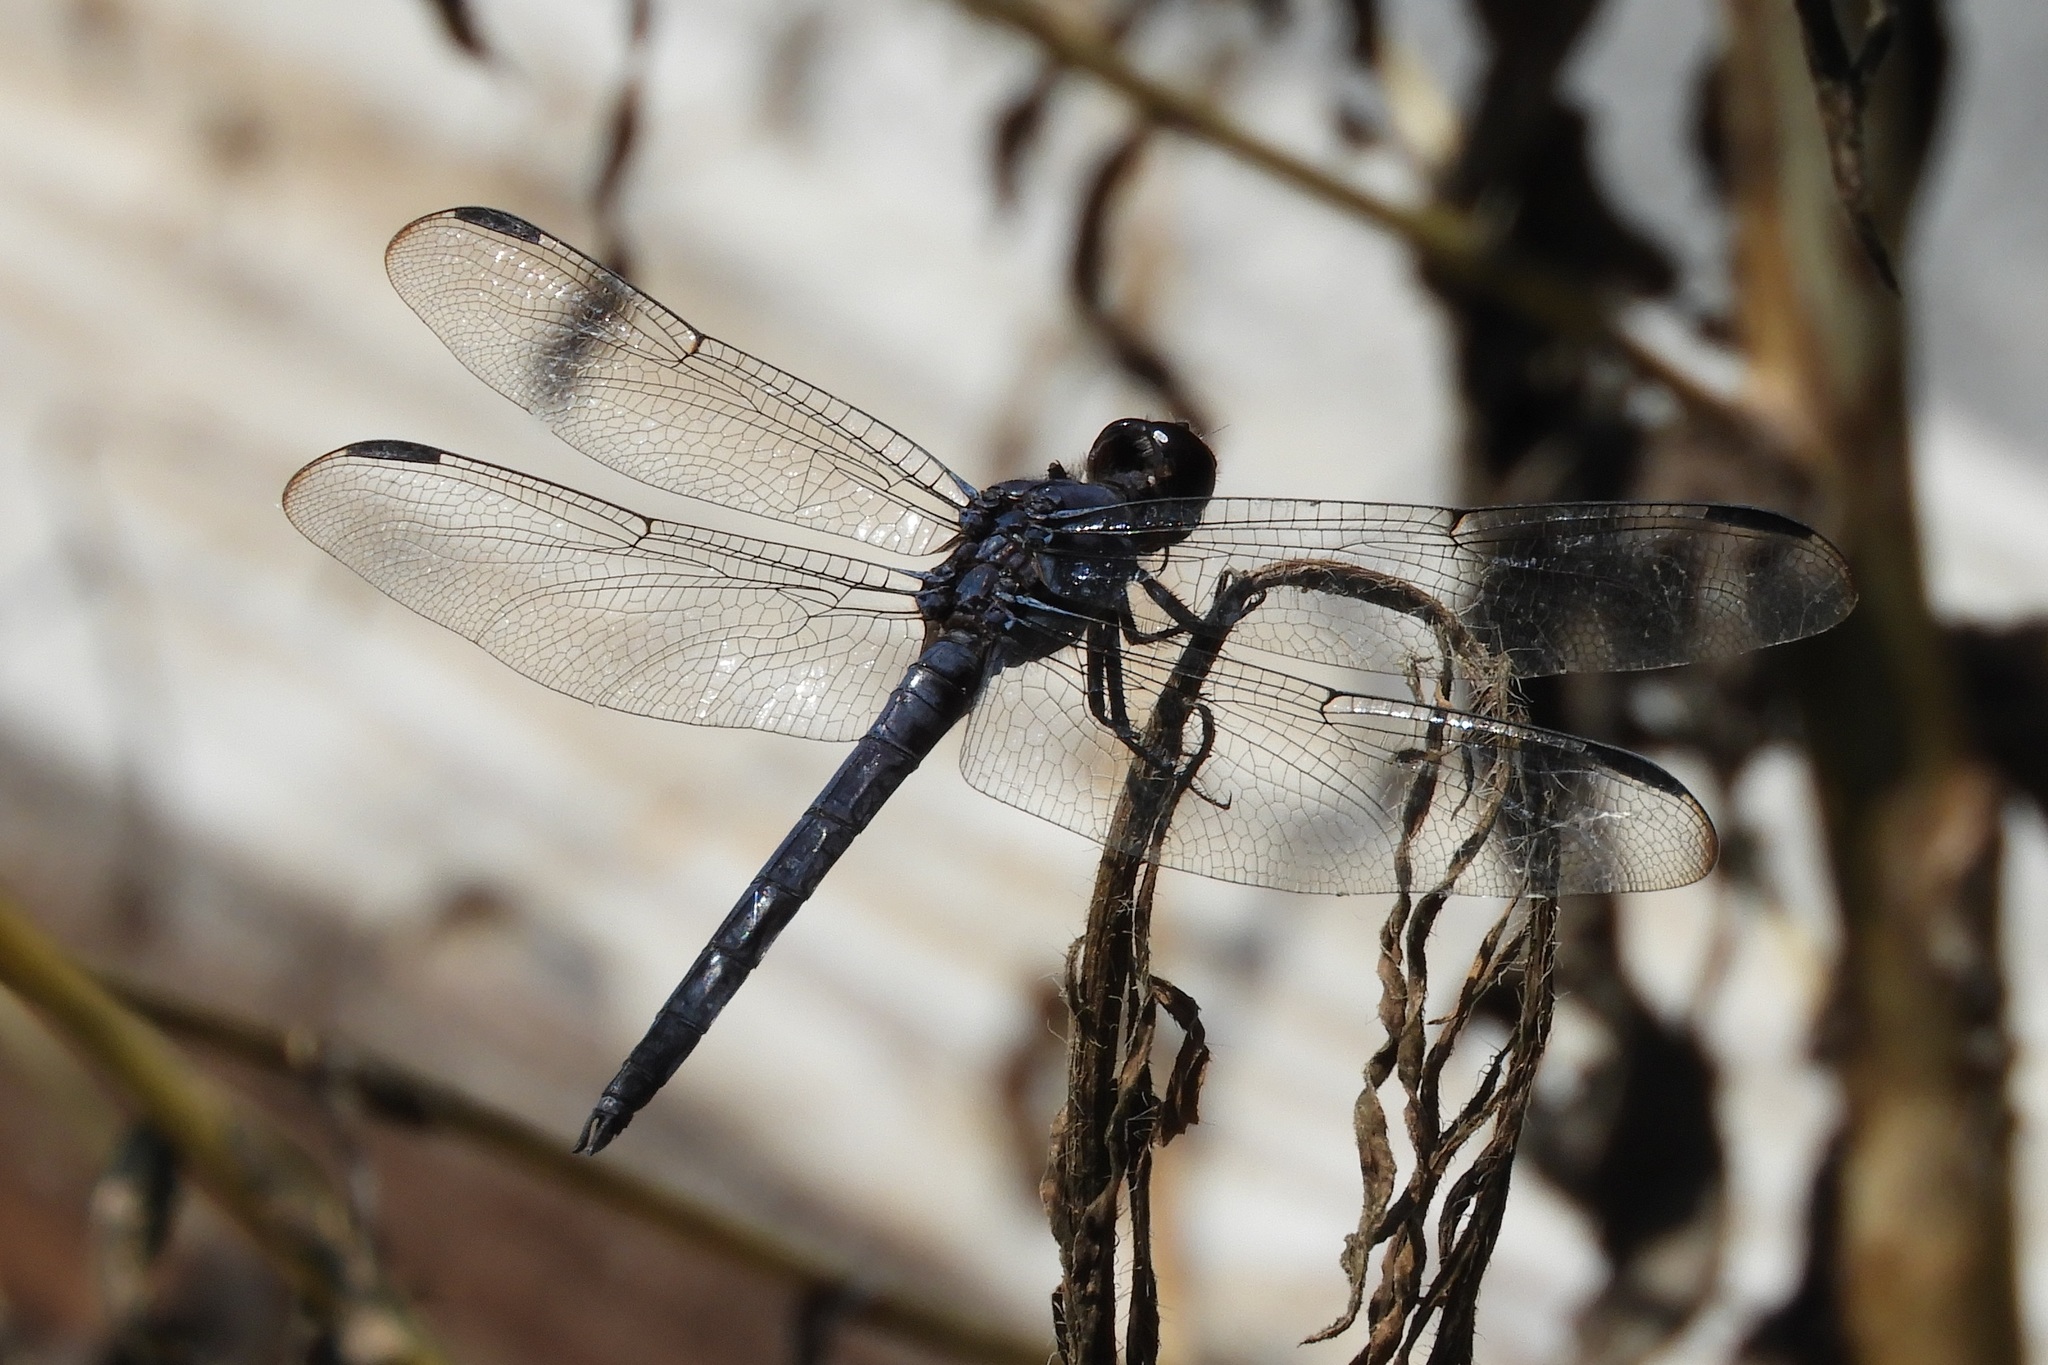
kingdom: Animalia
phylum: Arthropoda
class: Insecta
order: Odonata
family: Libellulidae
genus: Libellula
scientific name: Libellula incesta
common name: Slaty skimmer
